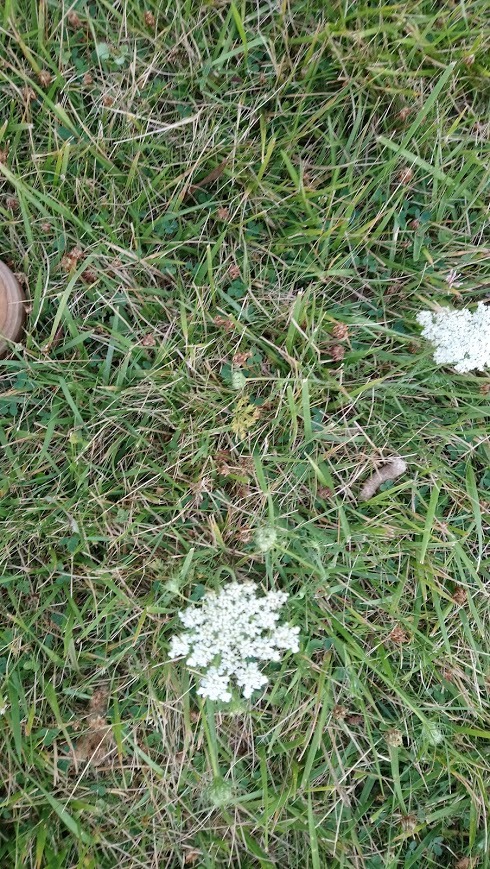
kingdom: Plantae
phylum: Tracheophyta
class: Magnoliopsida
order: Apiales
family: Apiaceae
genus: Daucus
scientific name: Daucus carota
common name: Wild carrot
